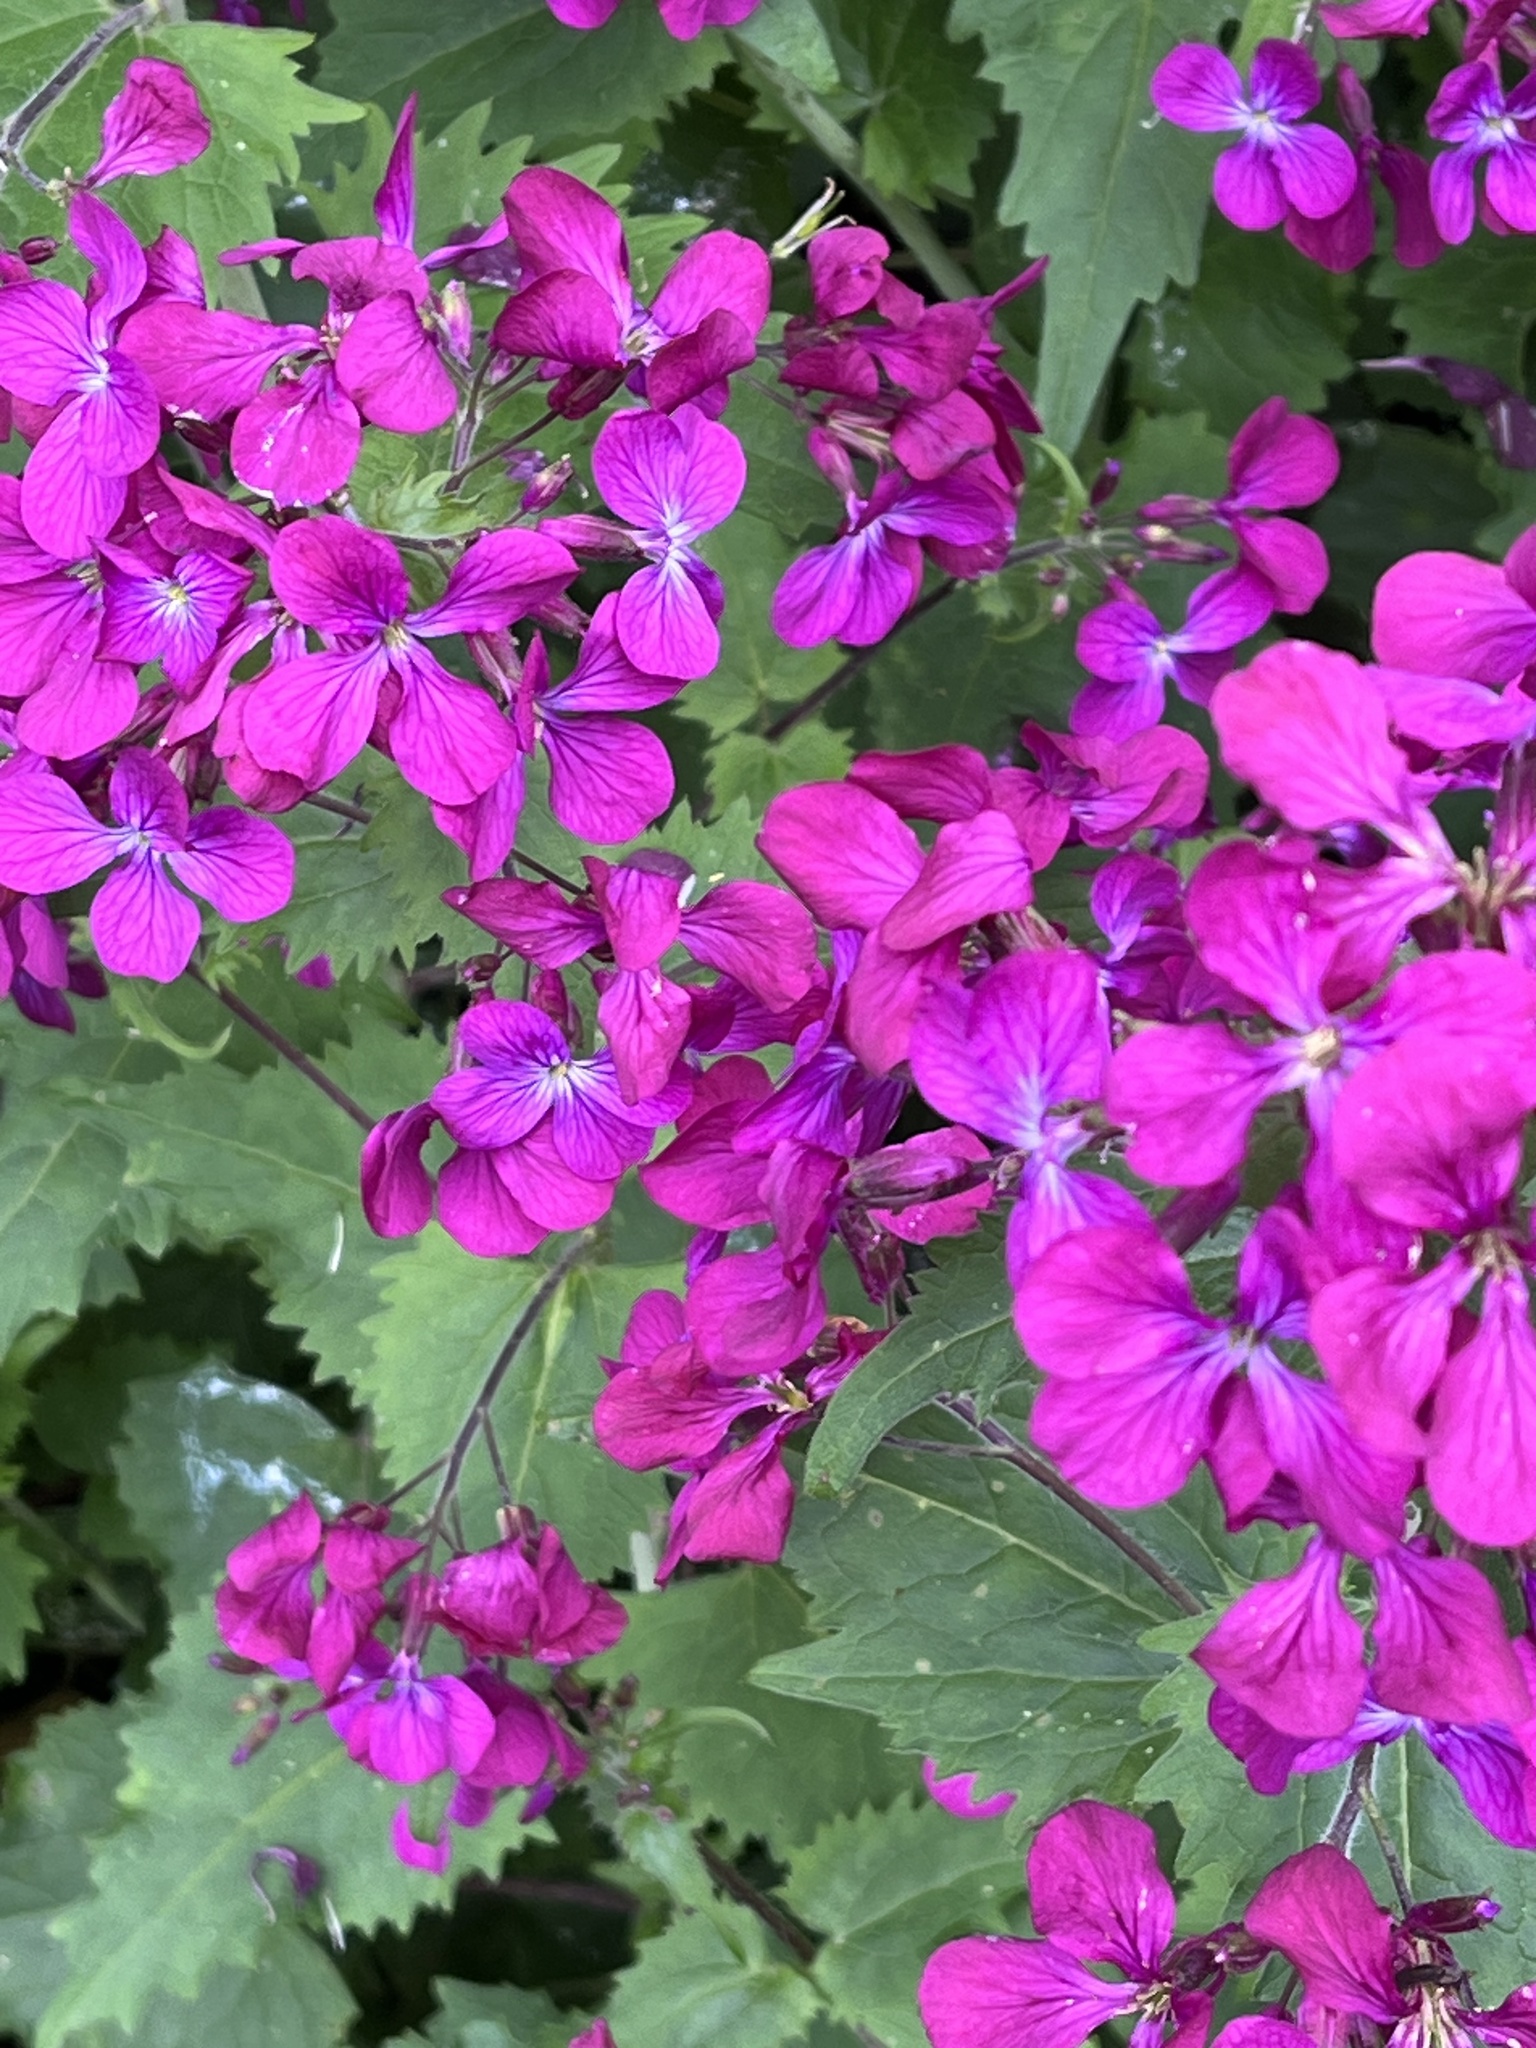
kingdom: Plantae
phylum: Tracheophyta
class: Magnoliopsida
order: Brassicales
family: Brassicaceae
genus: Lunaria
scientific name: Lunaria annua
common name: Honesty
